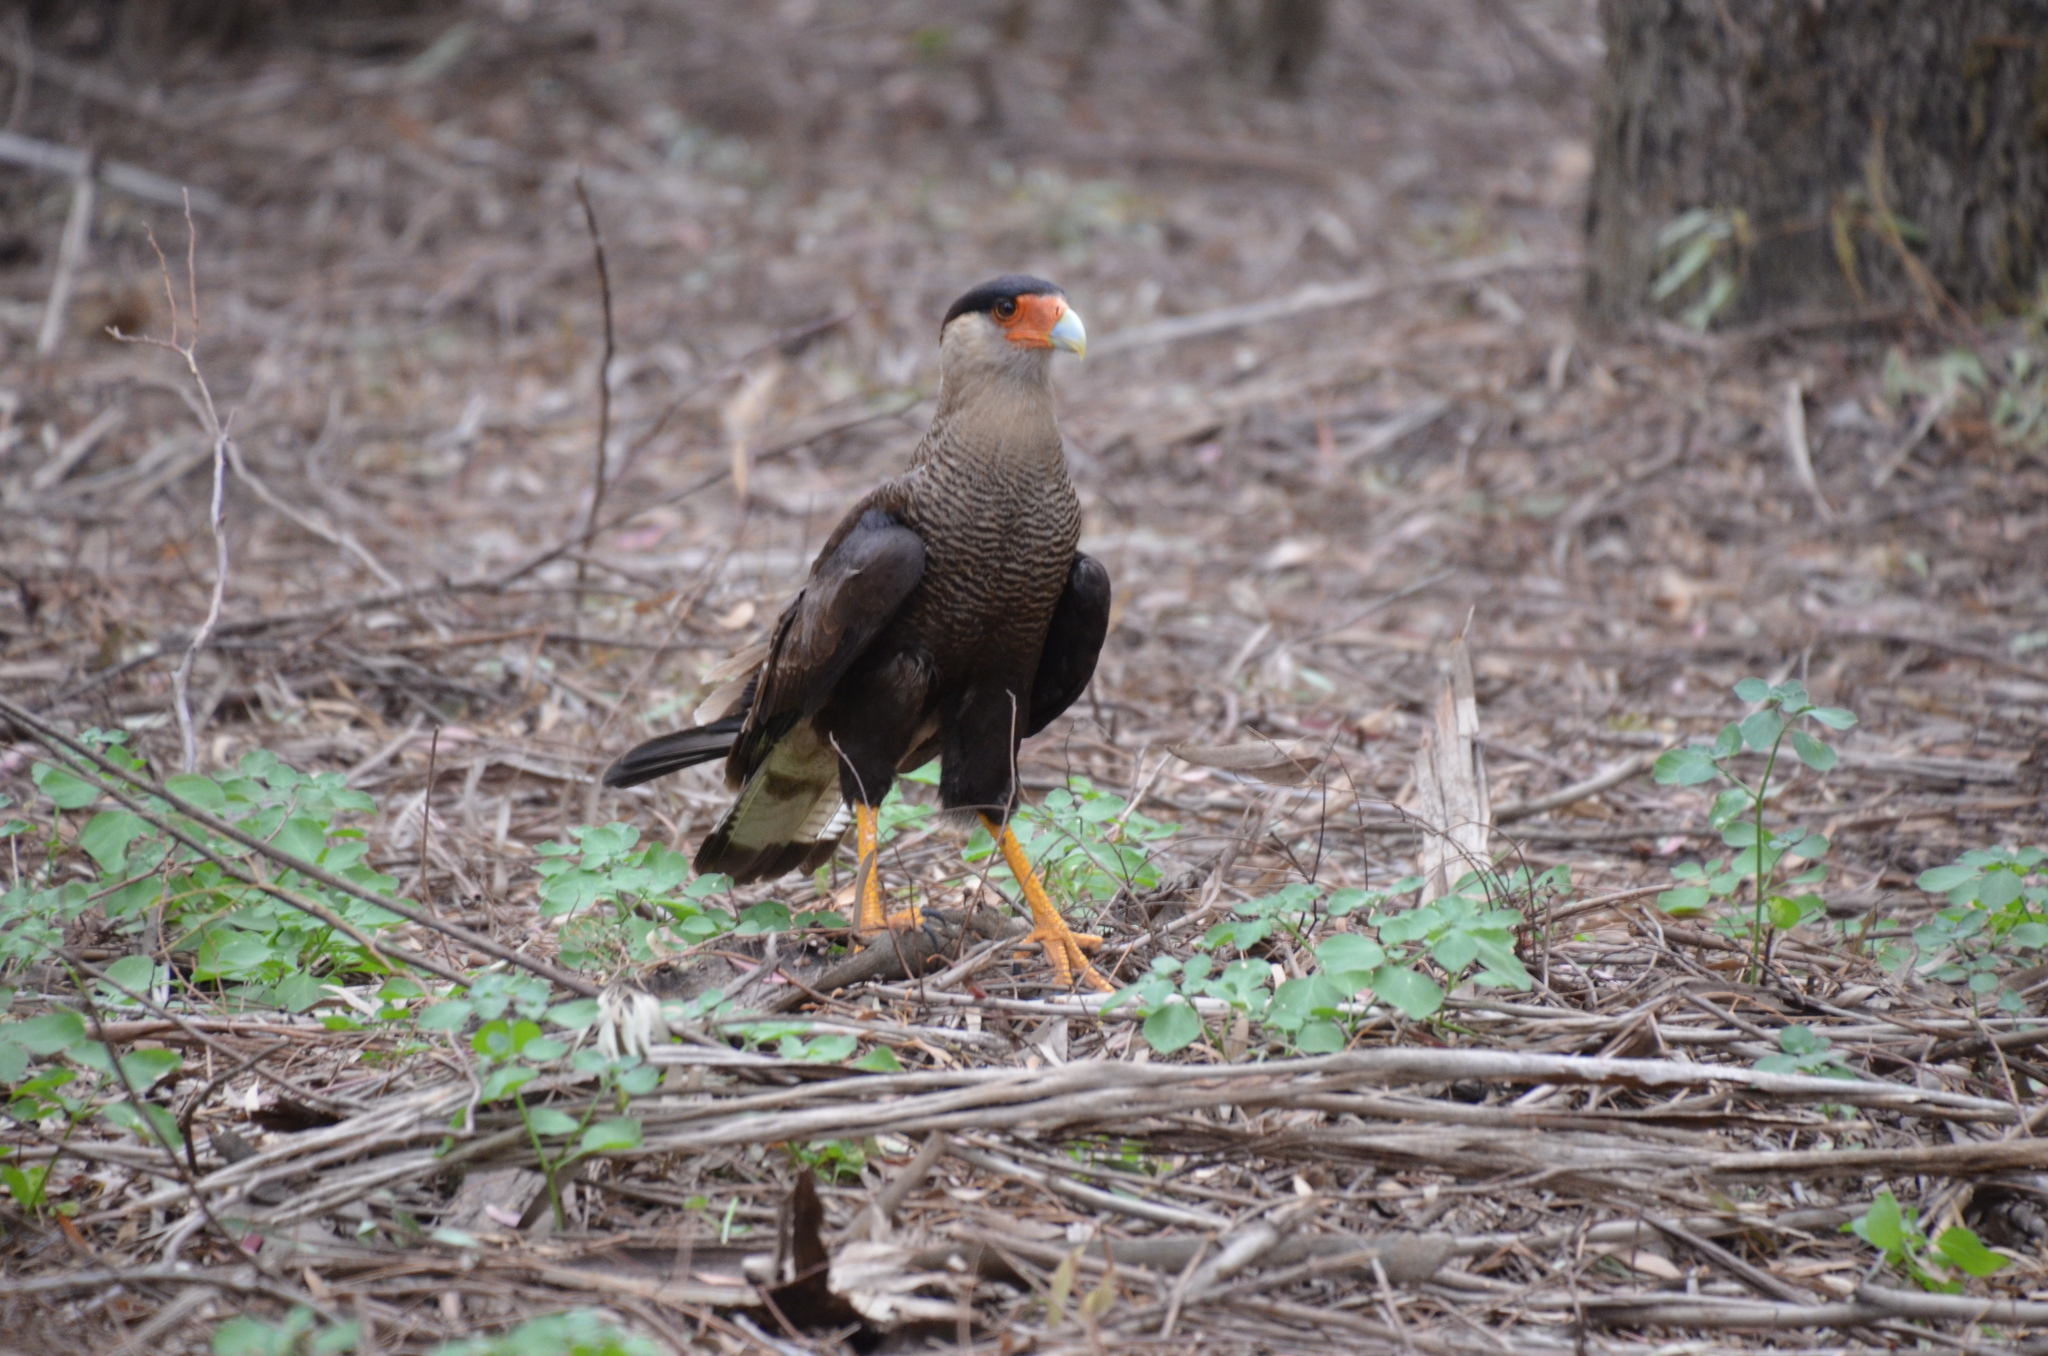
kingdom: Animalia
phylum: Chordata
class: Aves
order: Falconiformes
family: Falconidae
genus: Caracara
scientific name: Caracara plancus
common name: Southern caracara
